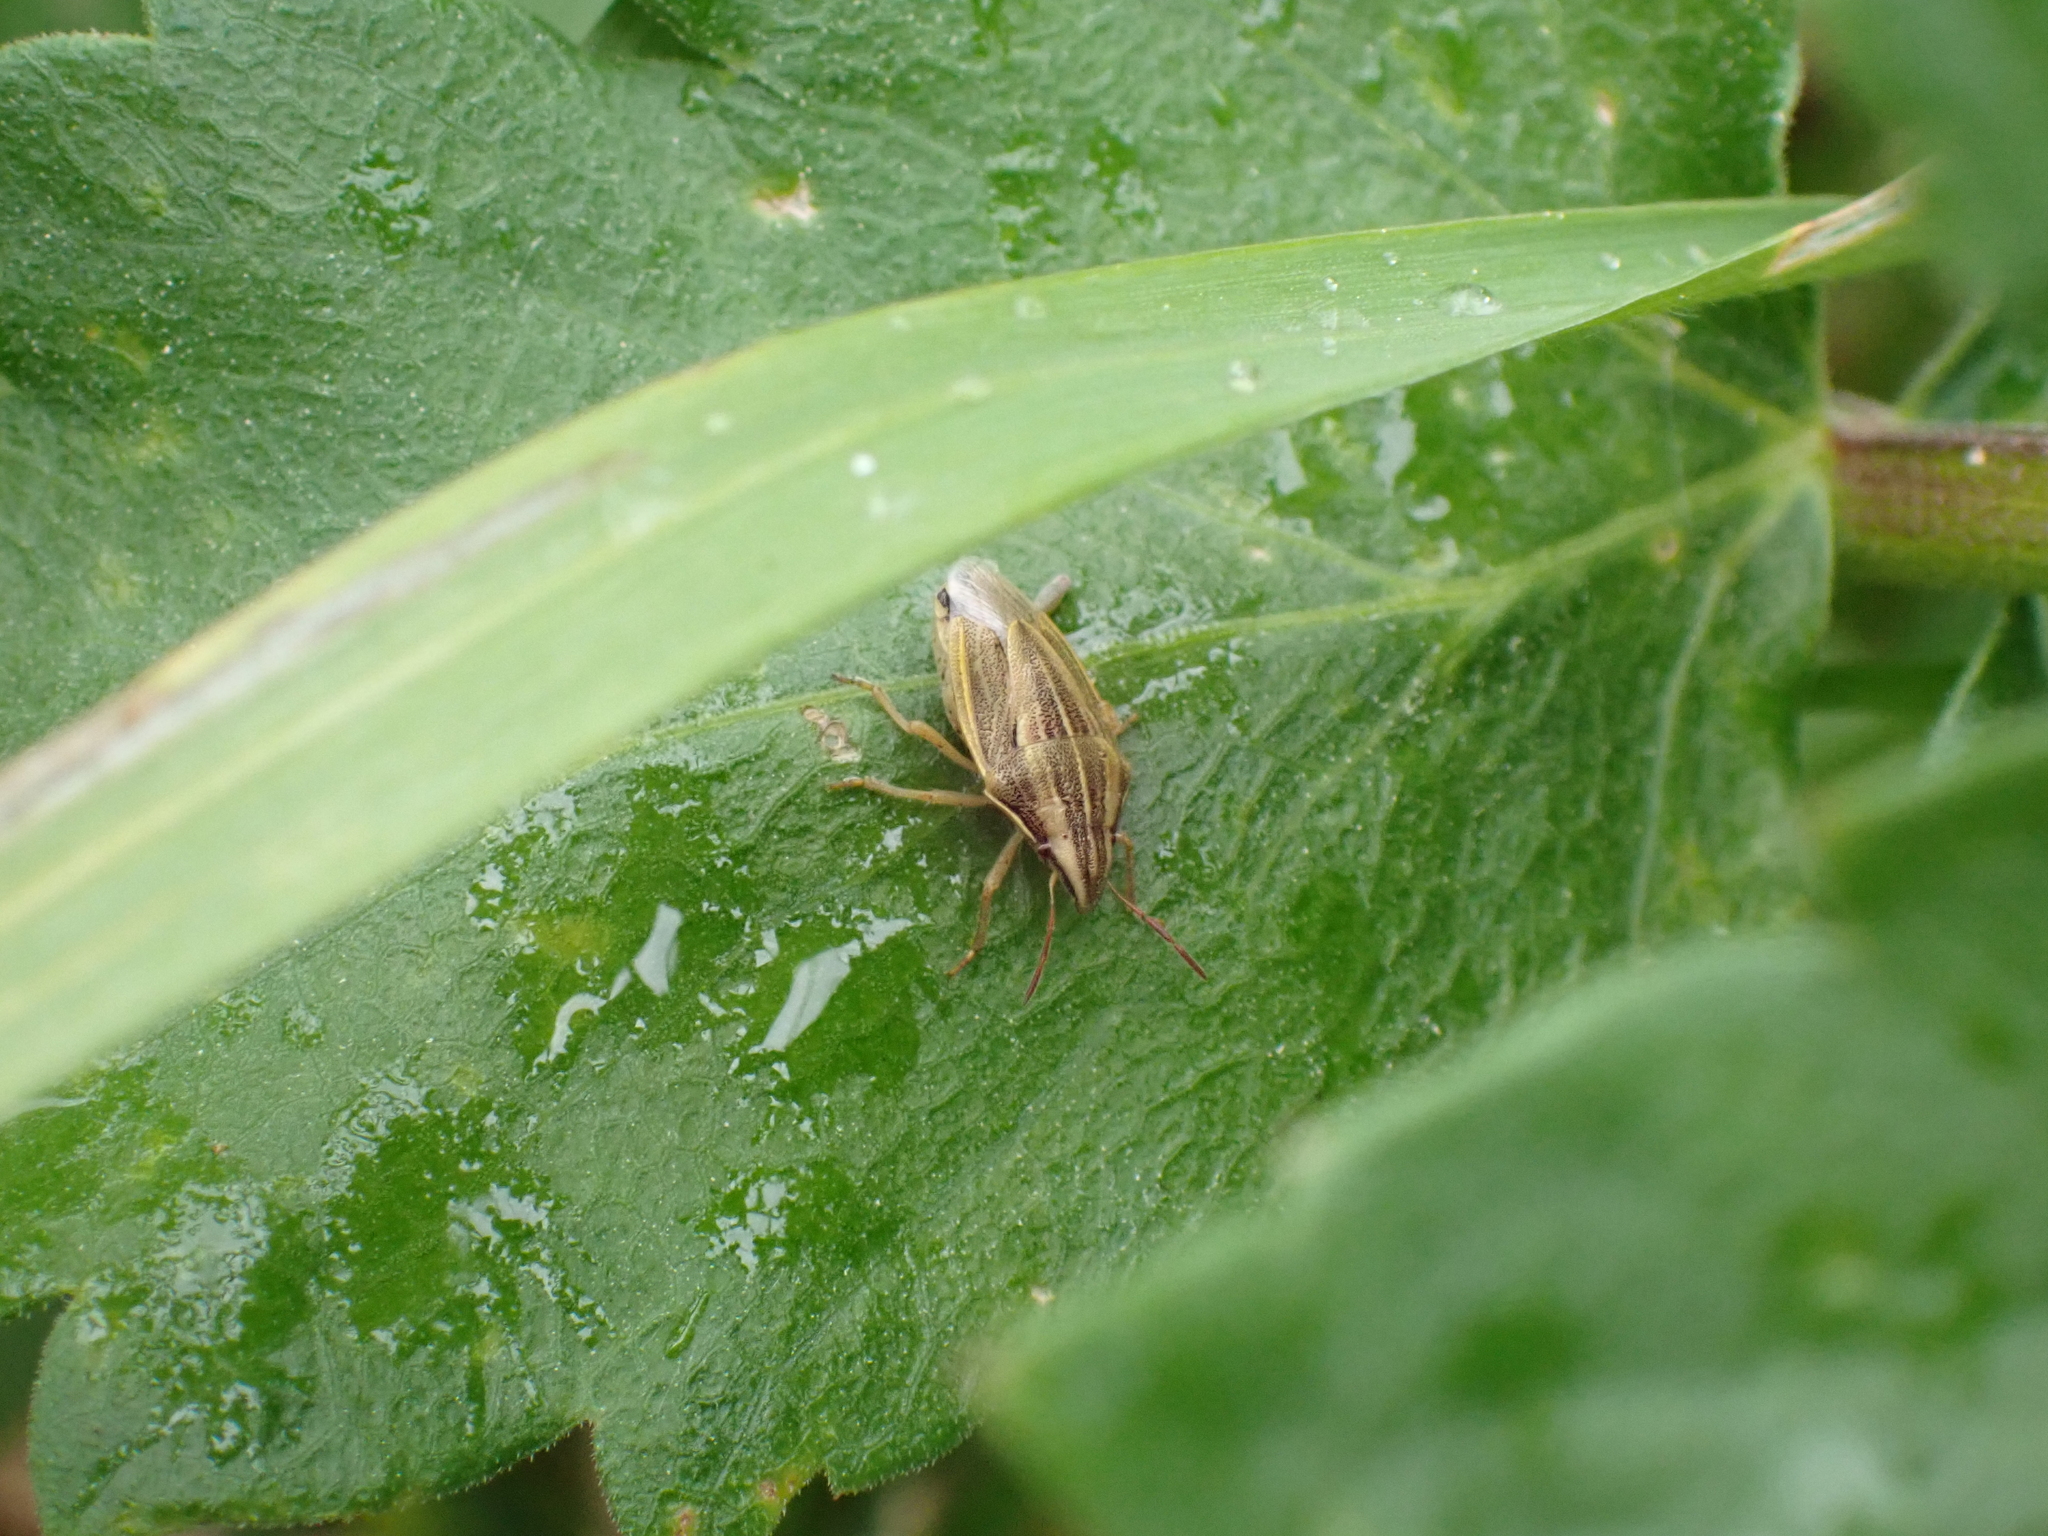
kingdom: Animalia
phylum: Arthropoda
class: Insecta
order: Hemiptera
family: Pentatomidae
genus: Aelia
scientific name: Aelia acuminata
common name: Bishop's mitre
